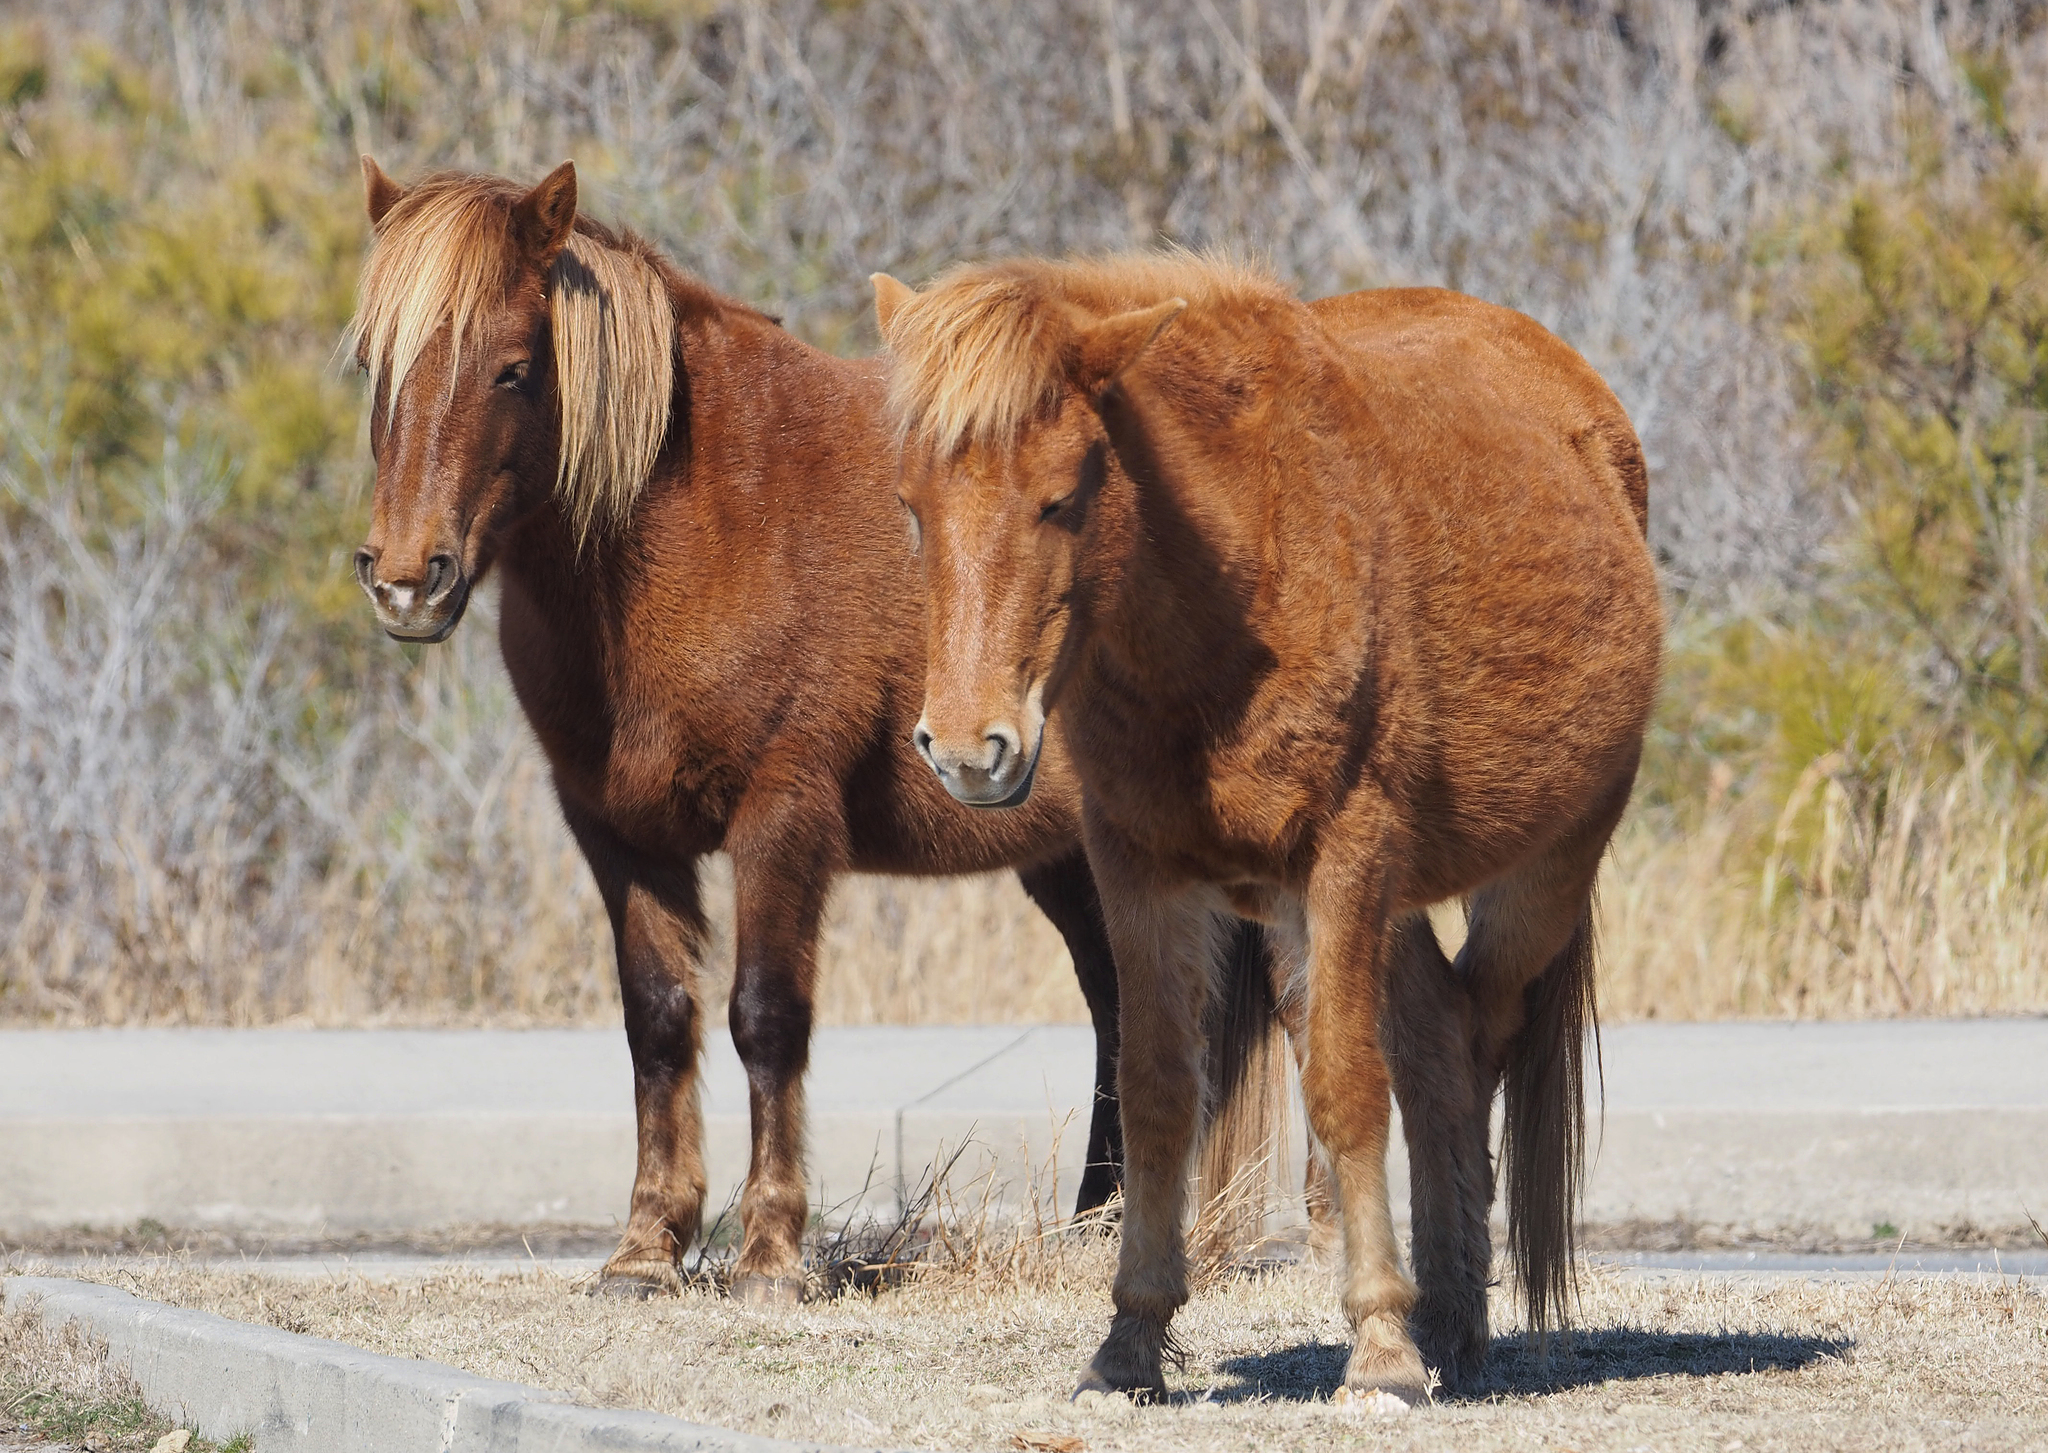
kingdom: Animalia
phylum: Chordata
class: Mammalia
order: Perissodactyla
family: Equidae
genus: Equus
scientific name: Equus caballus
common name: Horse
